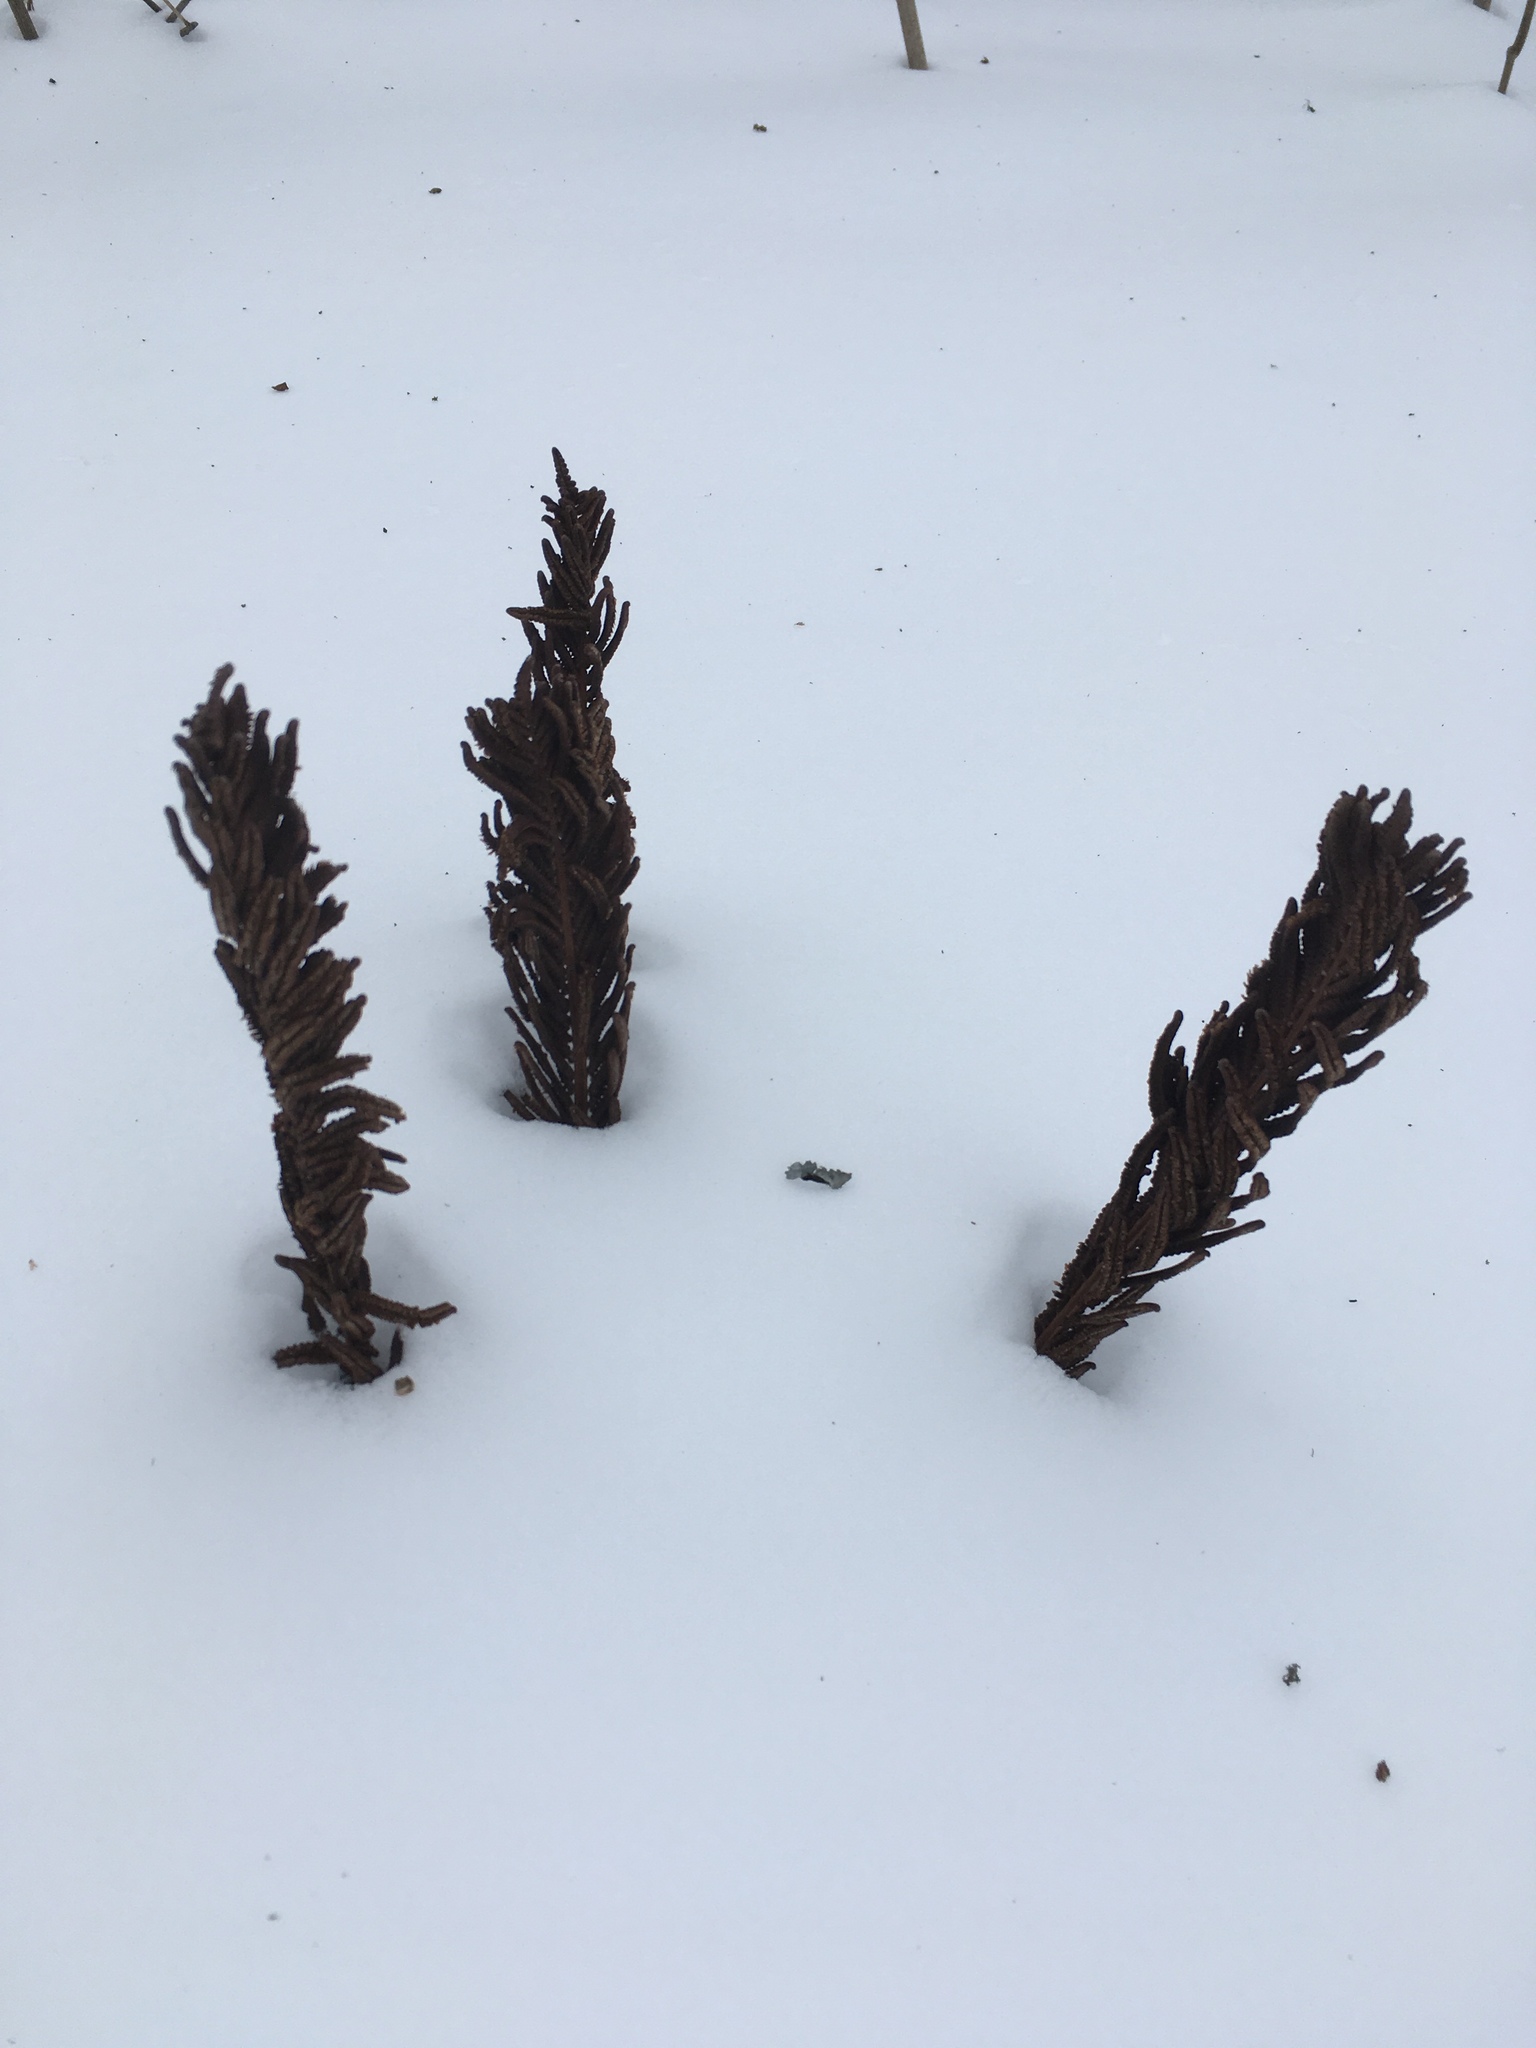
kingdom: Plantae
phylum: Tracheophyta
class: Polypodiopsida
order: Polypodiales
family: Onocleaceae
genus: Matteuccia
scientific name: Matteuccia struthiopteris
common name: Ostrich fern
